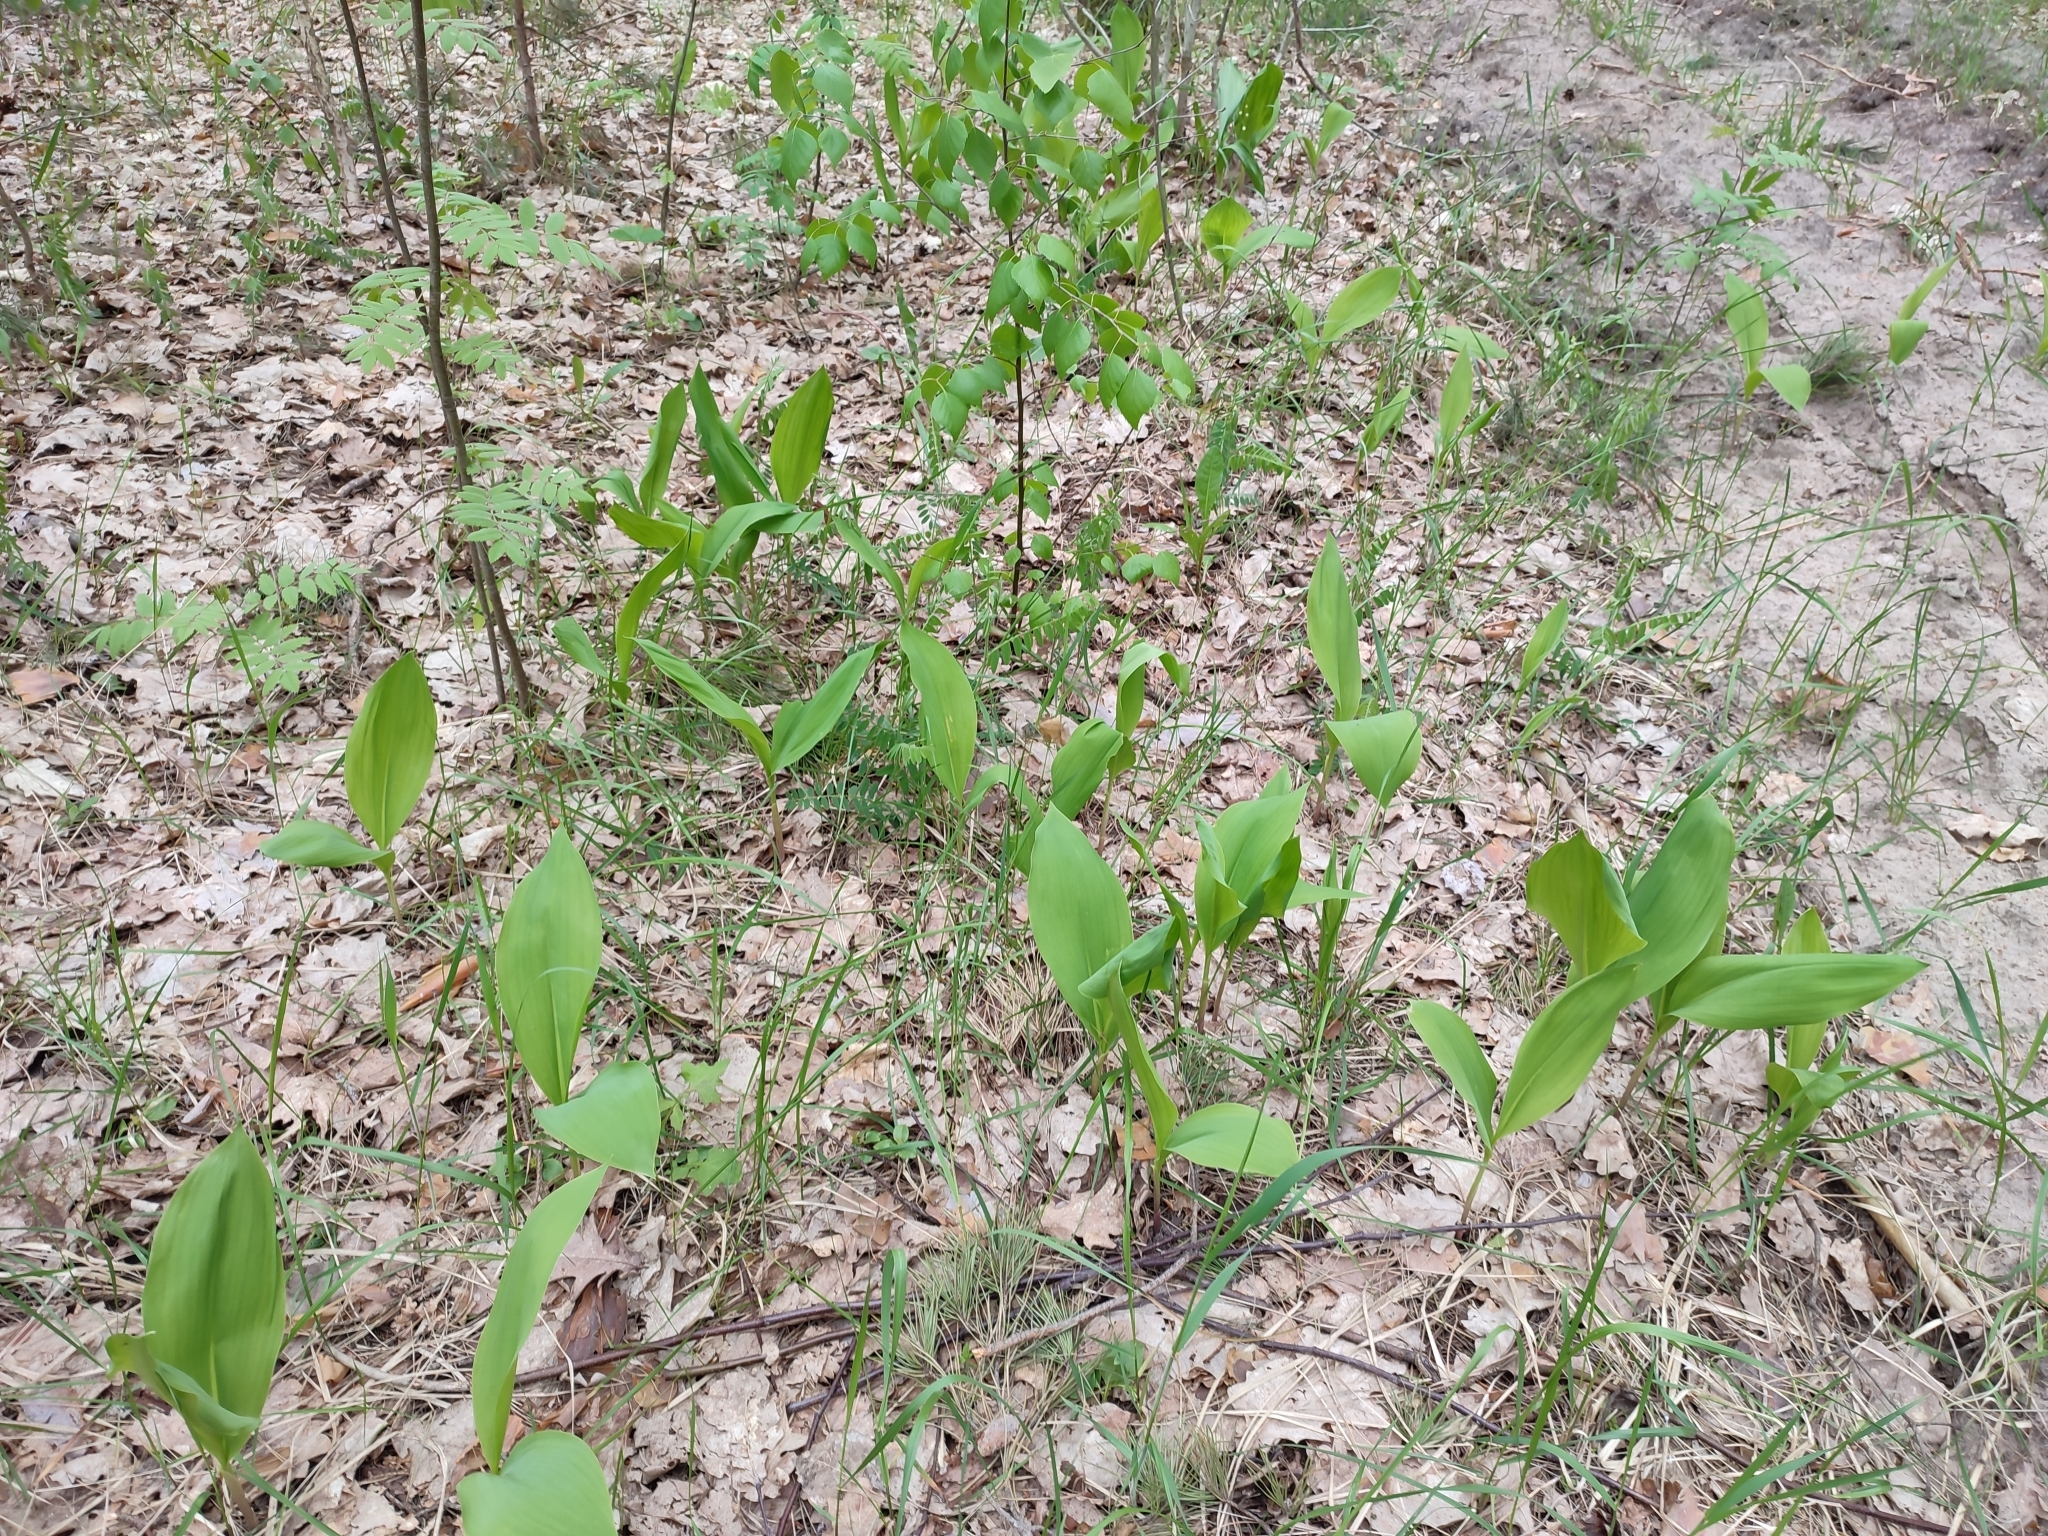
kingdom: Plantae
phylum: Tracheophyta
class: Liliopsida
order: Asparagales
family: Asparagaceae
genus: Convallaria
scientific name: Convallaria majalis
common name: Lily-of-the-valley
